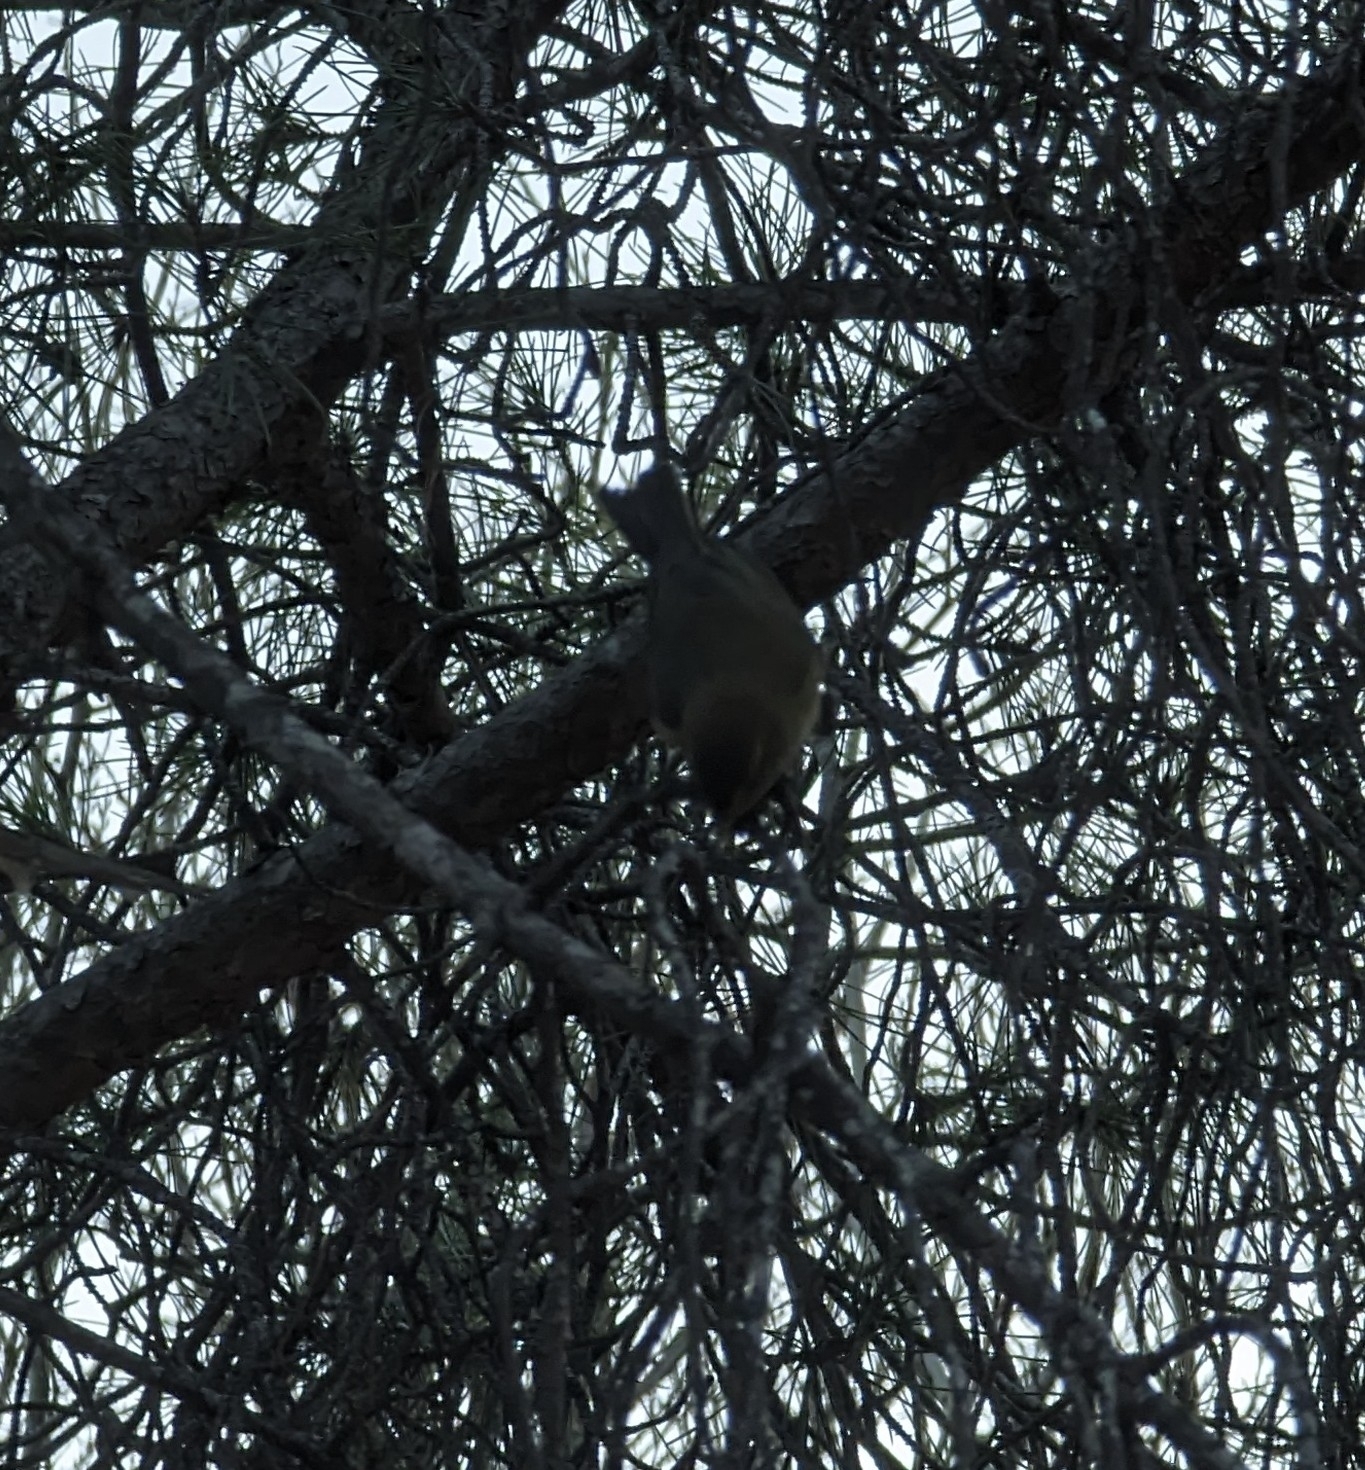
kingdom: Animalia
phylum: Chordata
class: Aves
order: Passeriformes
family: Phylloscopidae
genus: Phylloscopus
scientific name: Phylloscopus collybita
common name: Common chiffchaff
